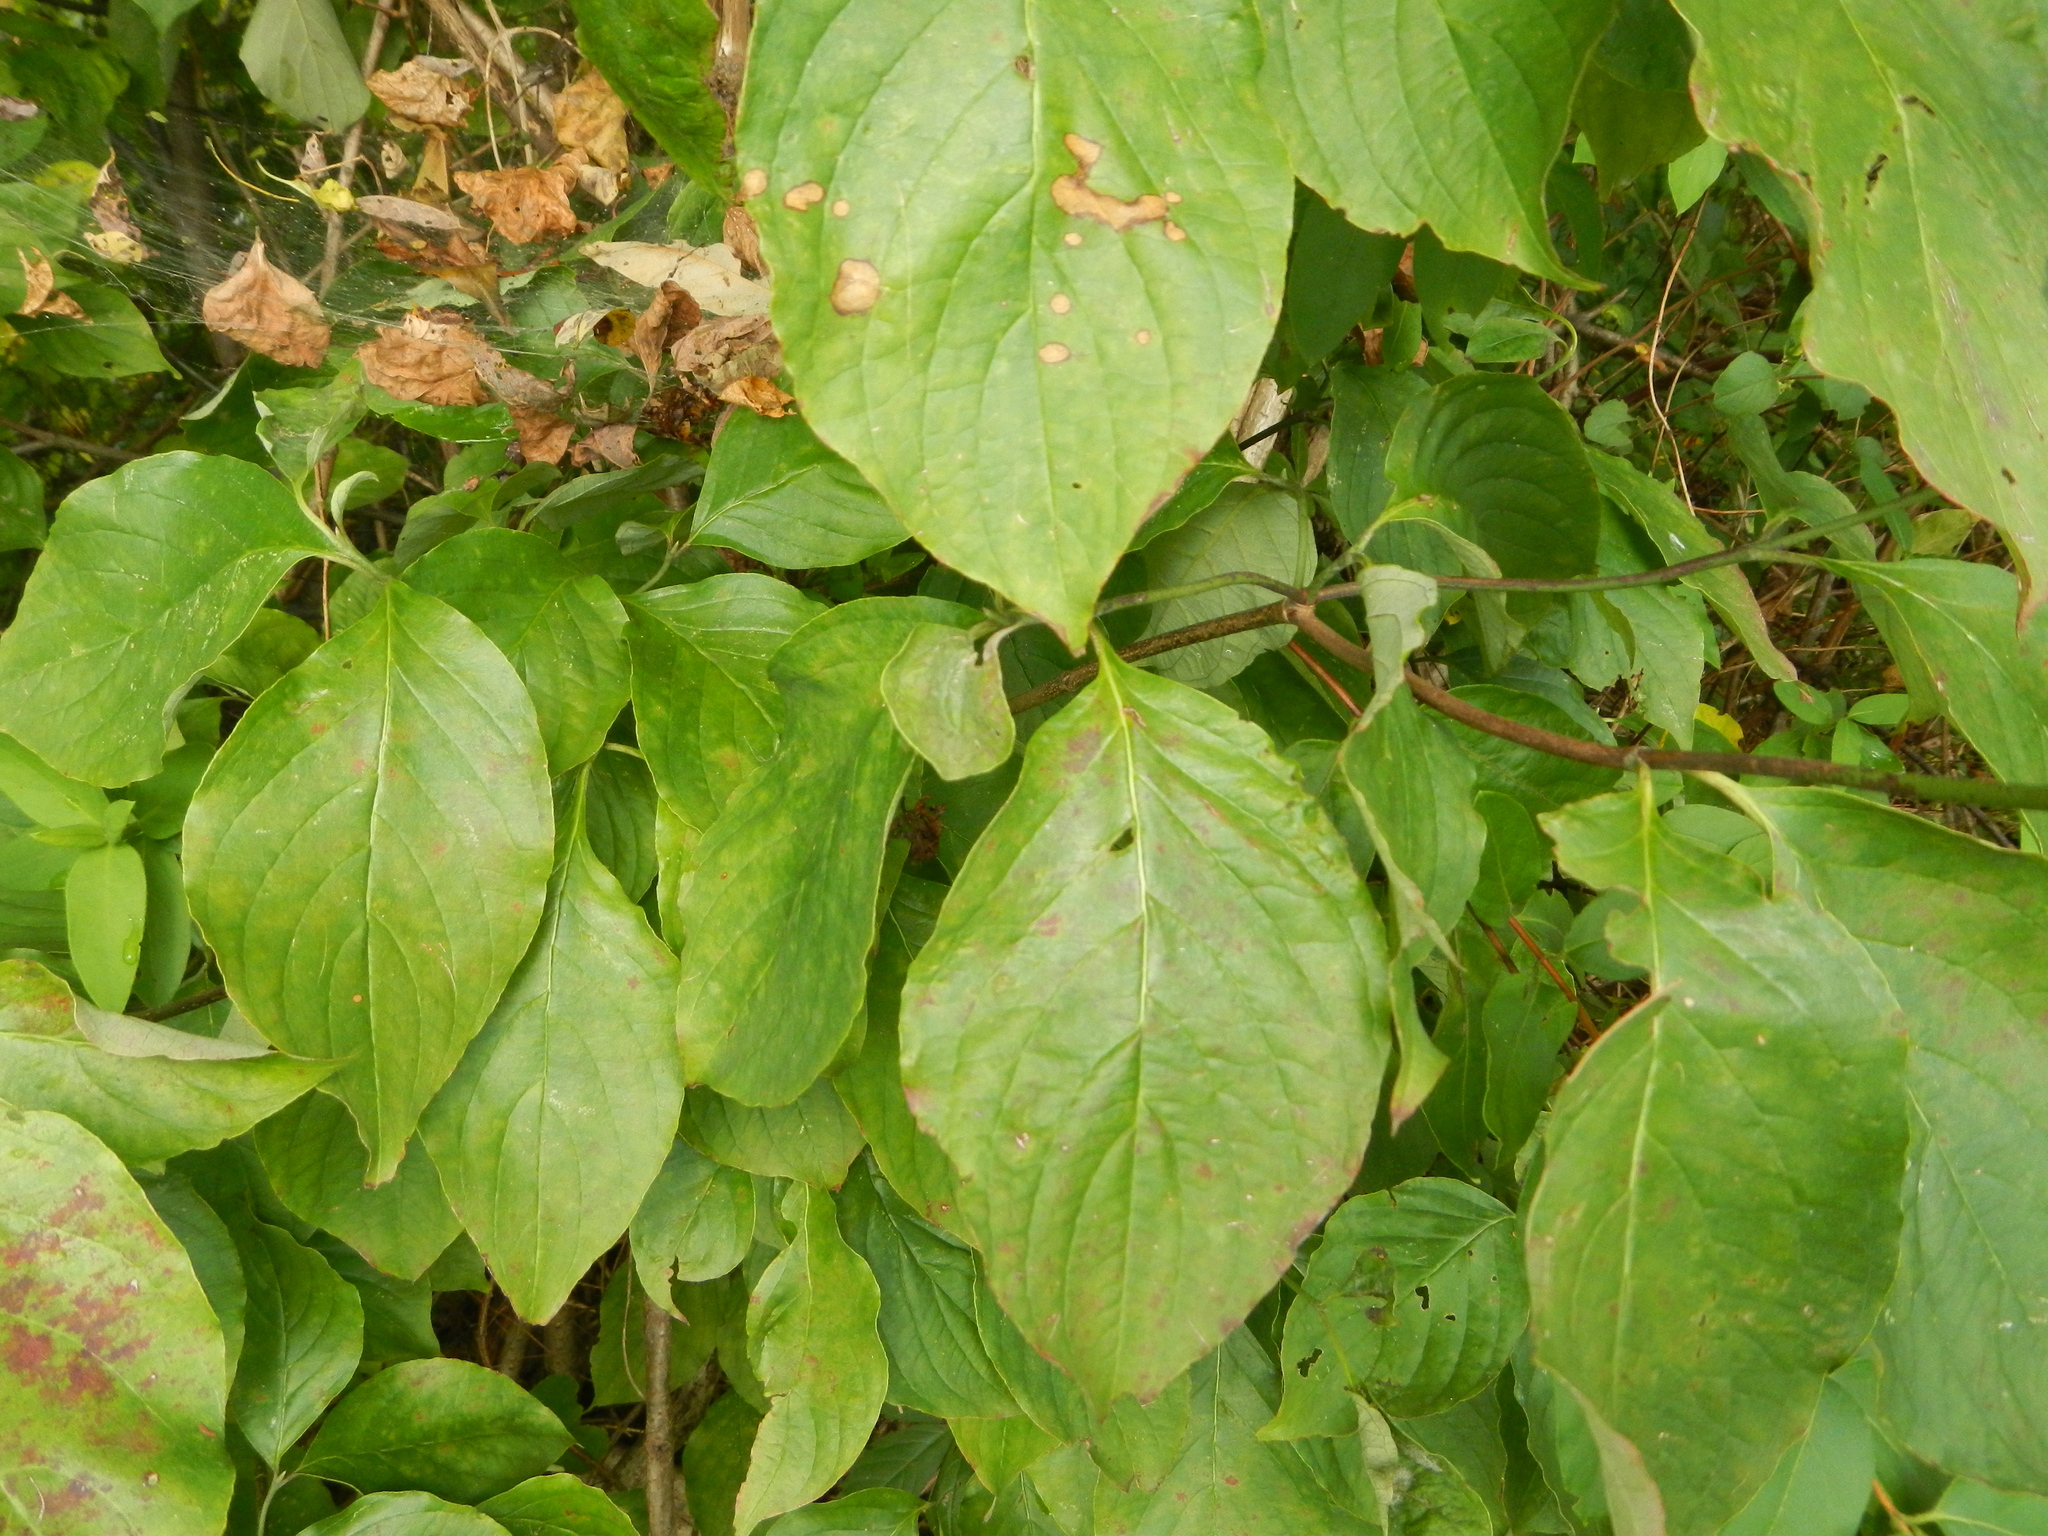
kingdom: Plantae
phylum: Tracheophyta
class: Magnoliopsida
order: Cornales
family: Cornaceae
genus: Cornus
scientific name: Cornus florida
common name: Flowering dogwood
